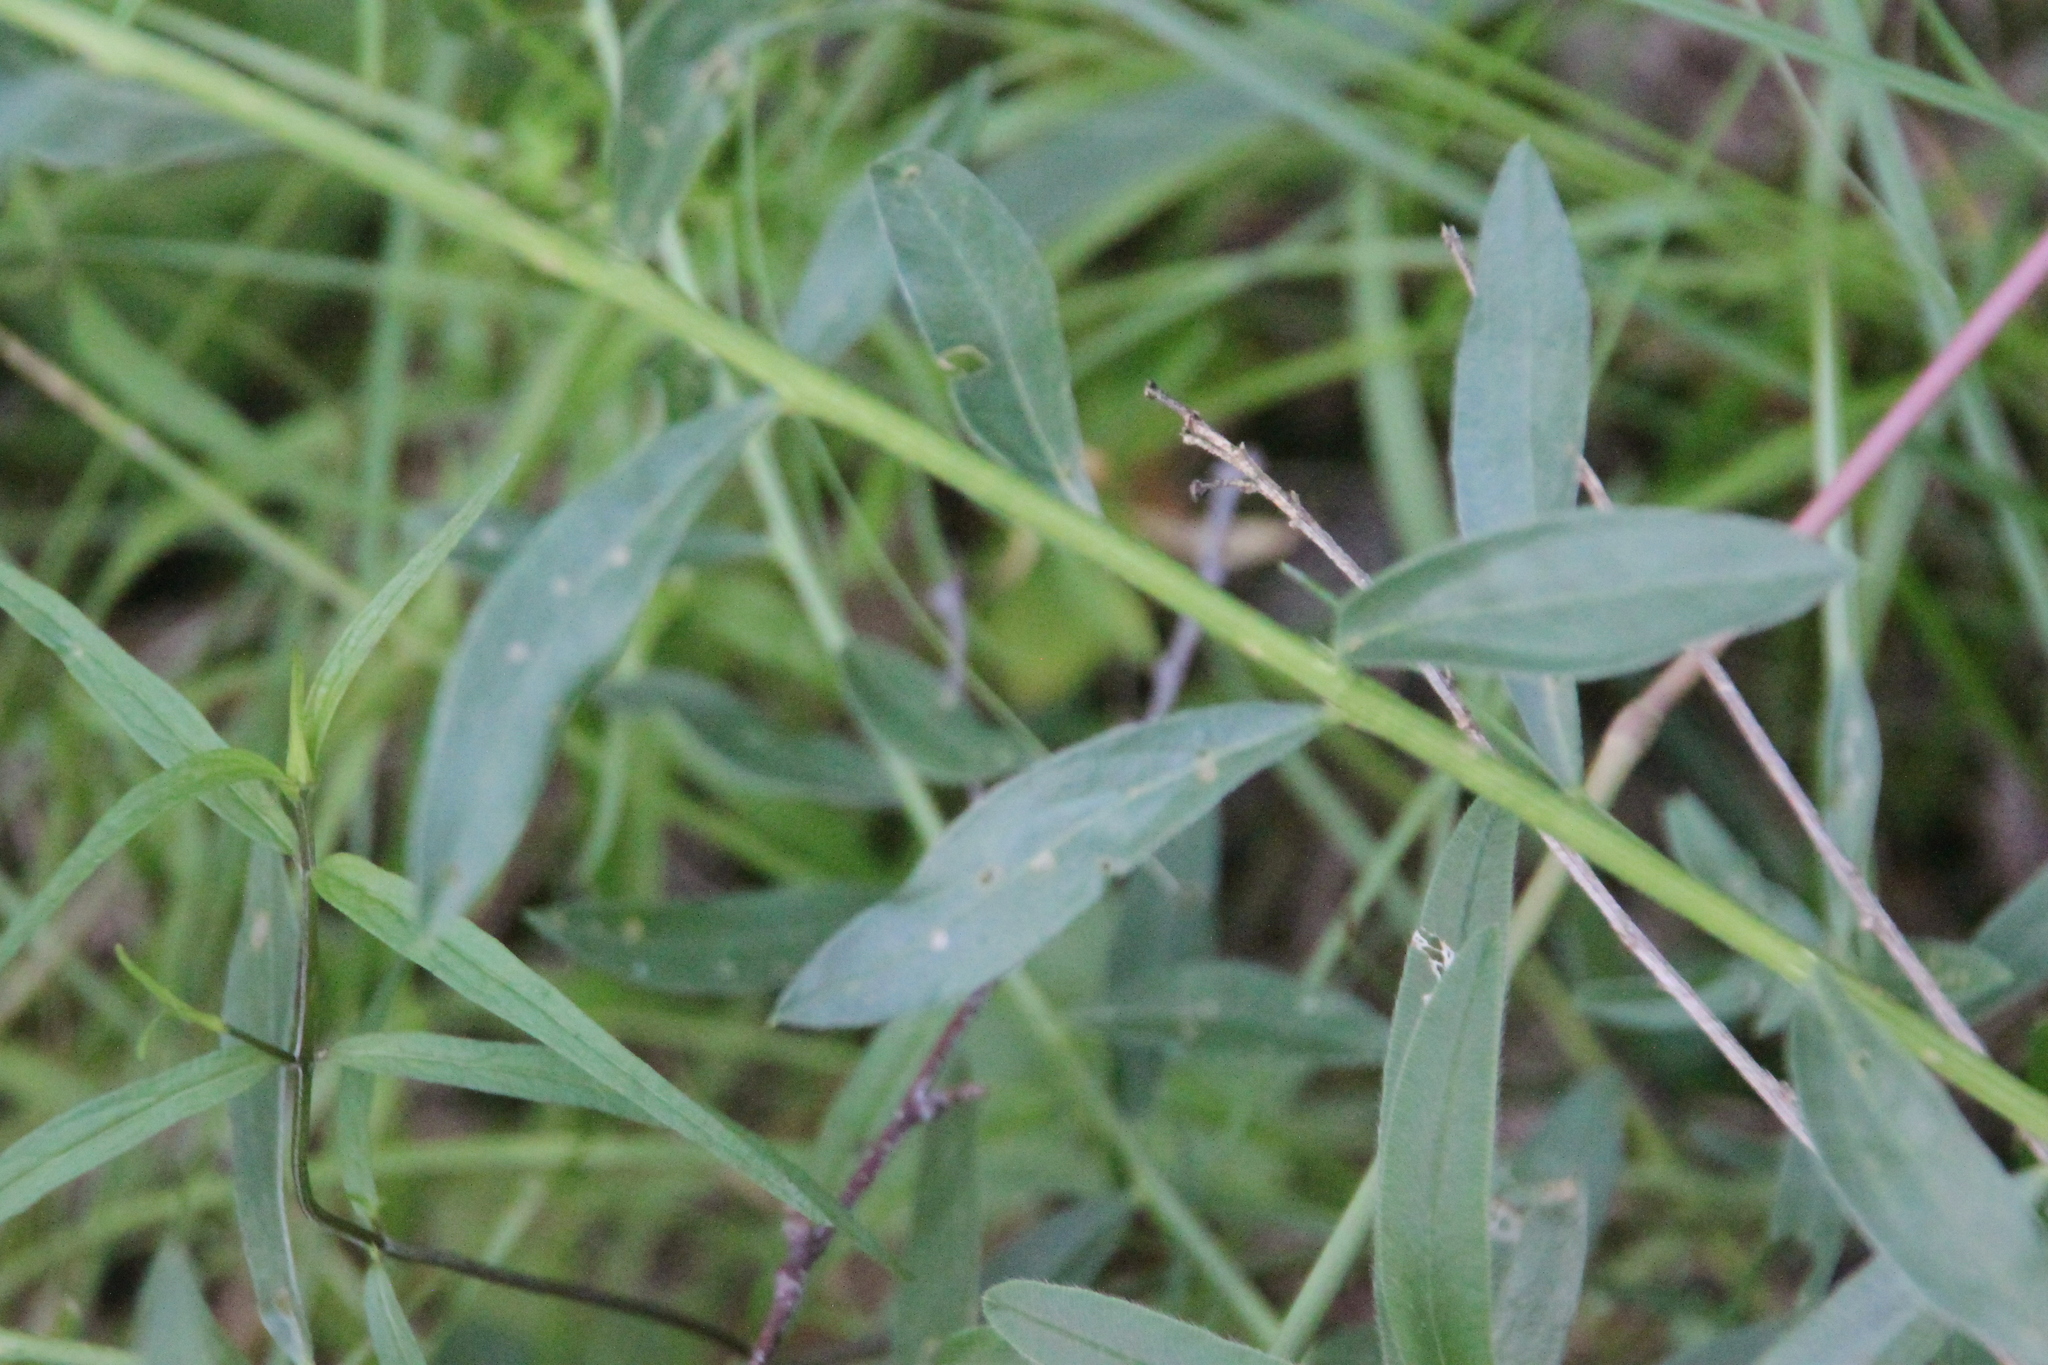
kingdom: Plantae
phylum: Tracheophyta
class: Magnoliopsida
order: Fabales
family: Fabaceae
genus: Genista
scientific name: Genista tinctoria
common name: Dyer's greenweed
